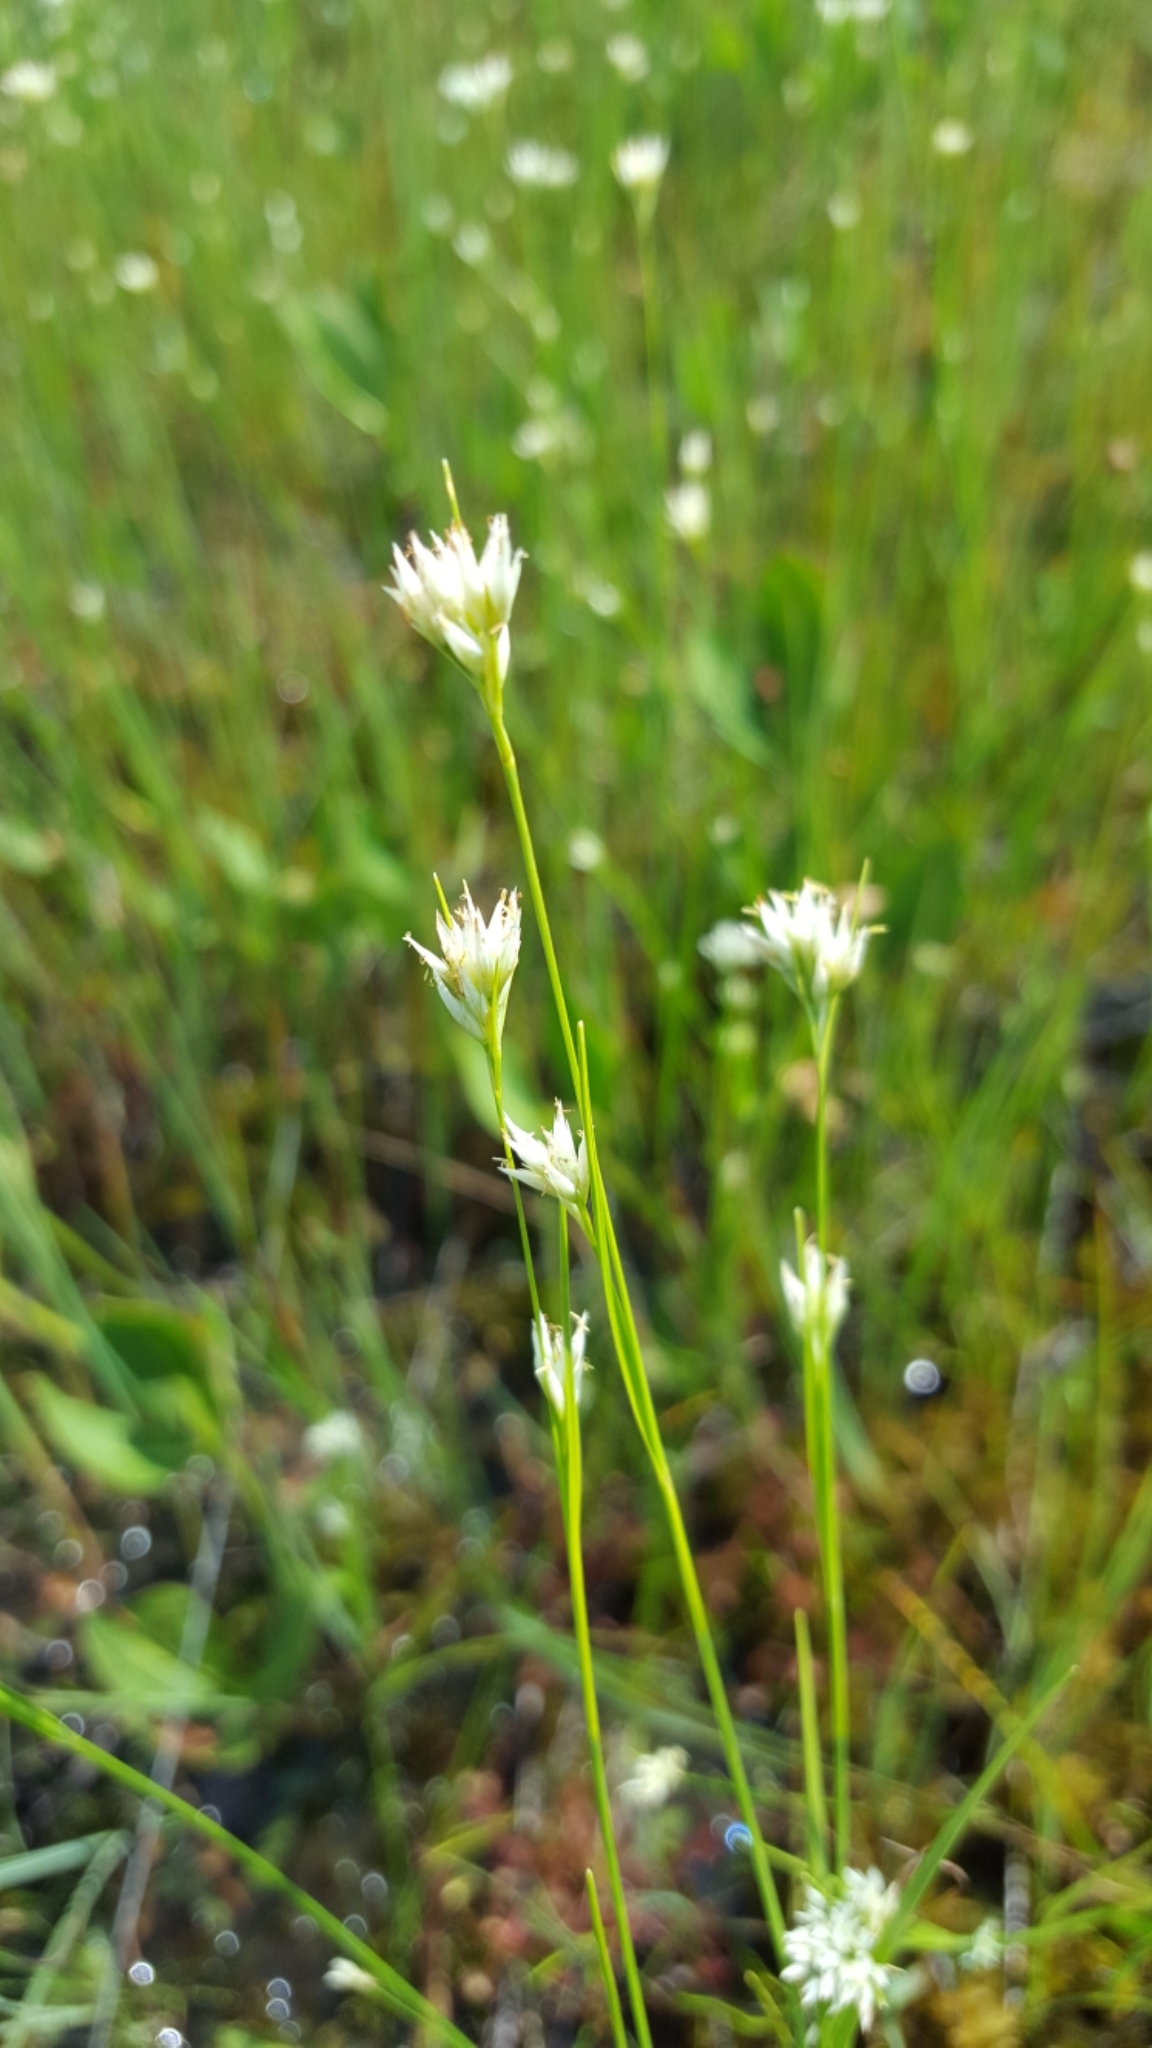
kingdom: Plantae
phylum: Tracheophyta
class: Liliopsida
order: Poales
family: Cyperaceae
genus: Rhynchospora
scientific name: Rhynchospora alba
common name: White beak-sedge
